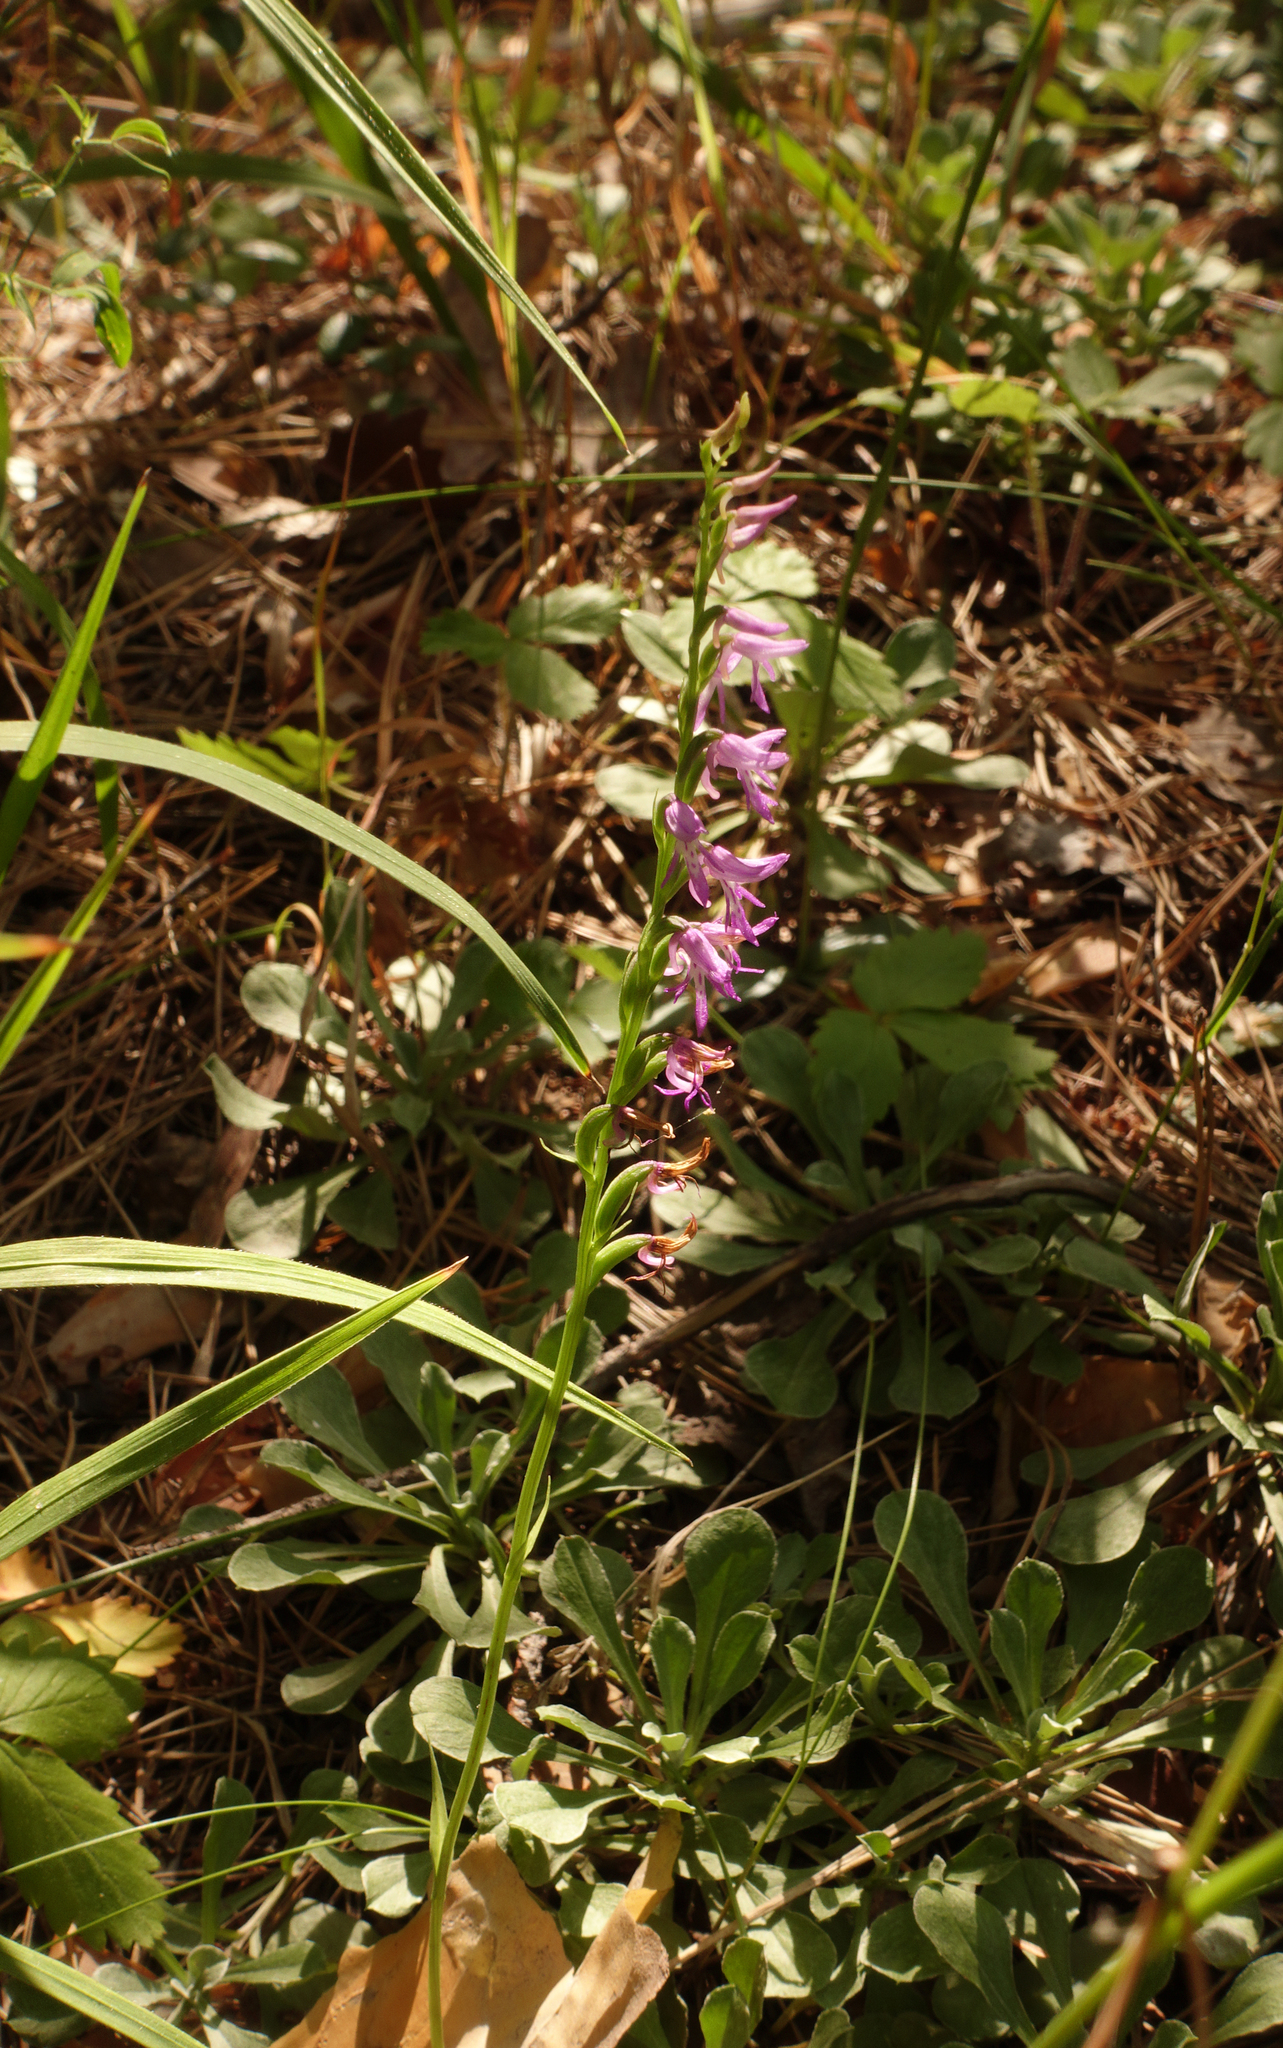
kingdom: Plantae
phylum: Tracheophyta
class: Liliopsida
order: Asparagales
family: Orchidaceae
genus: Hemipilia
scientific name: Hemipilia cucullata
